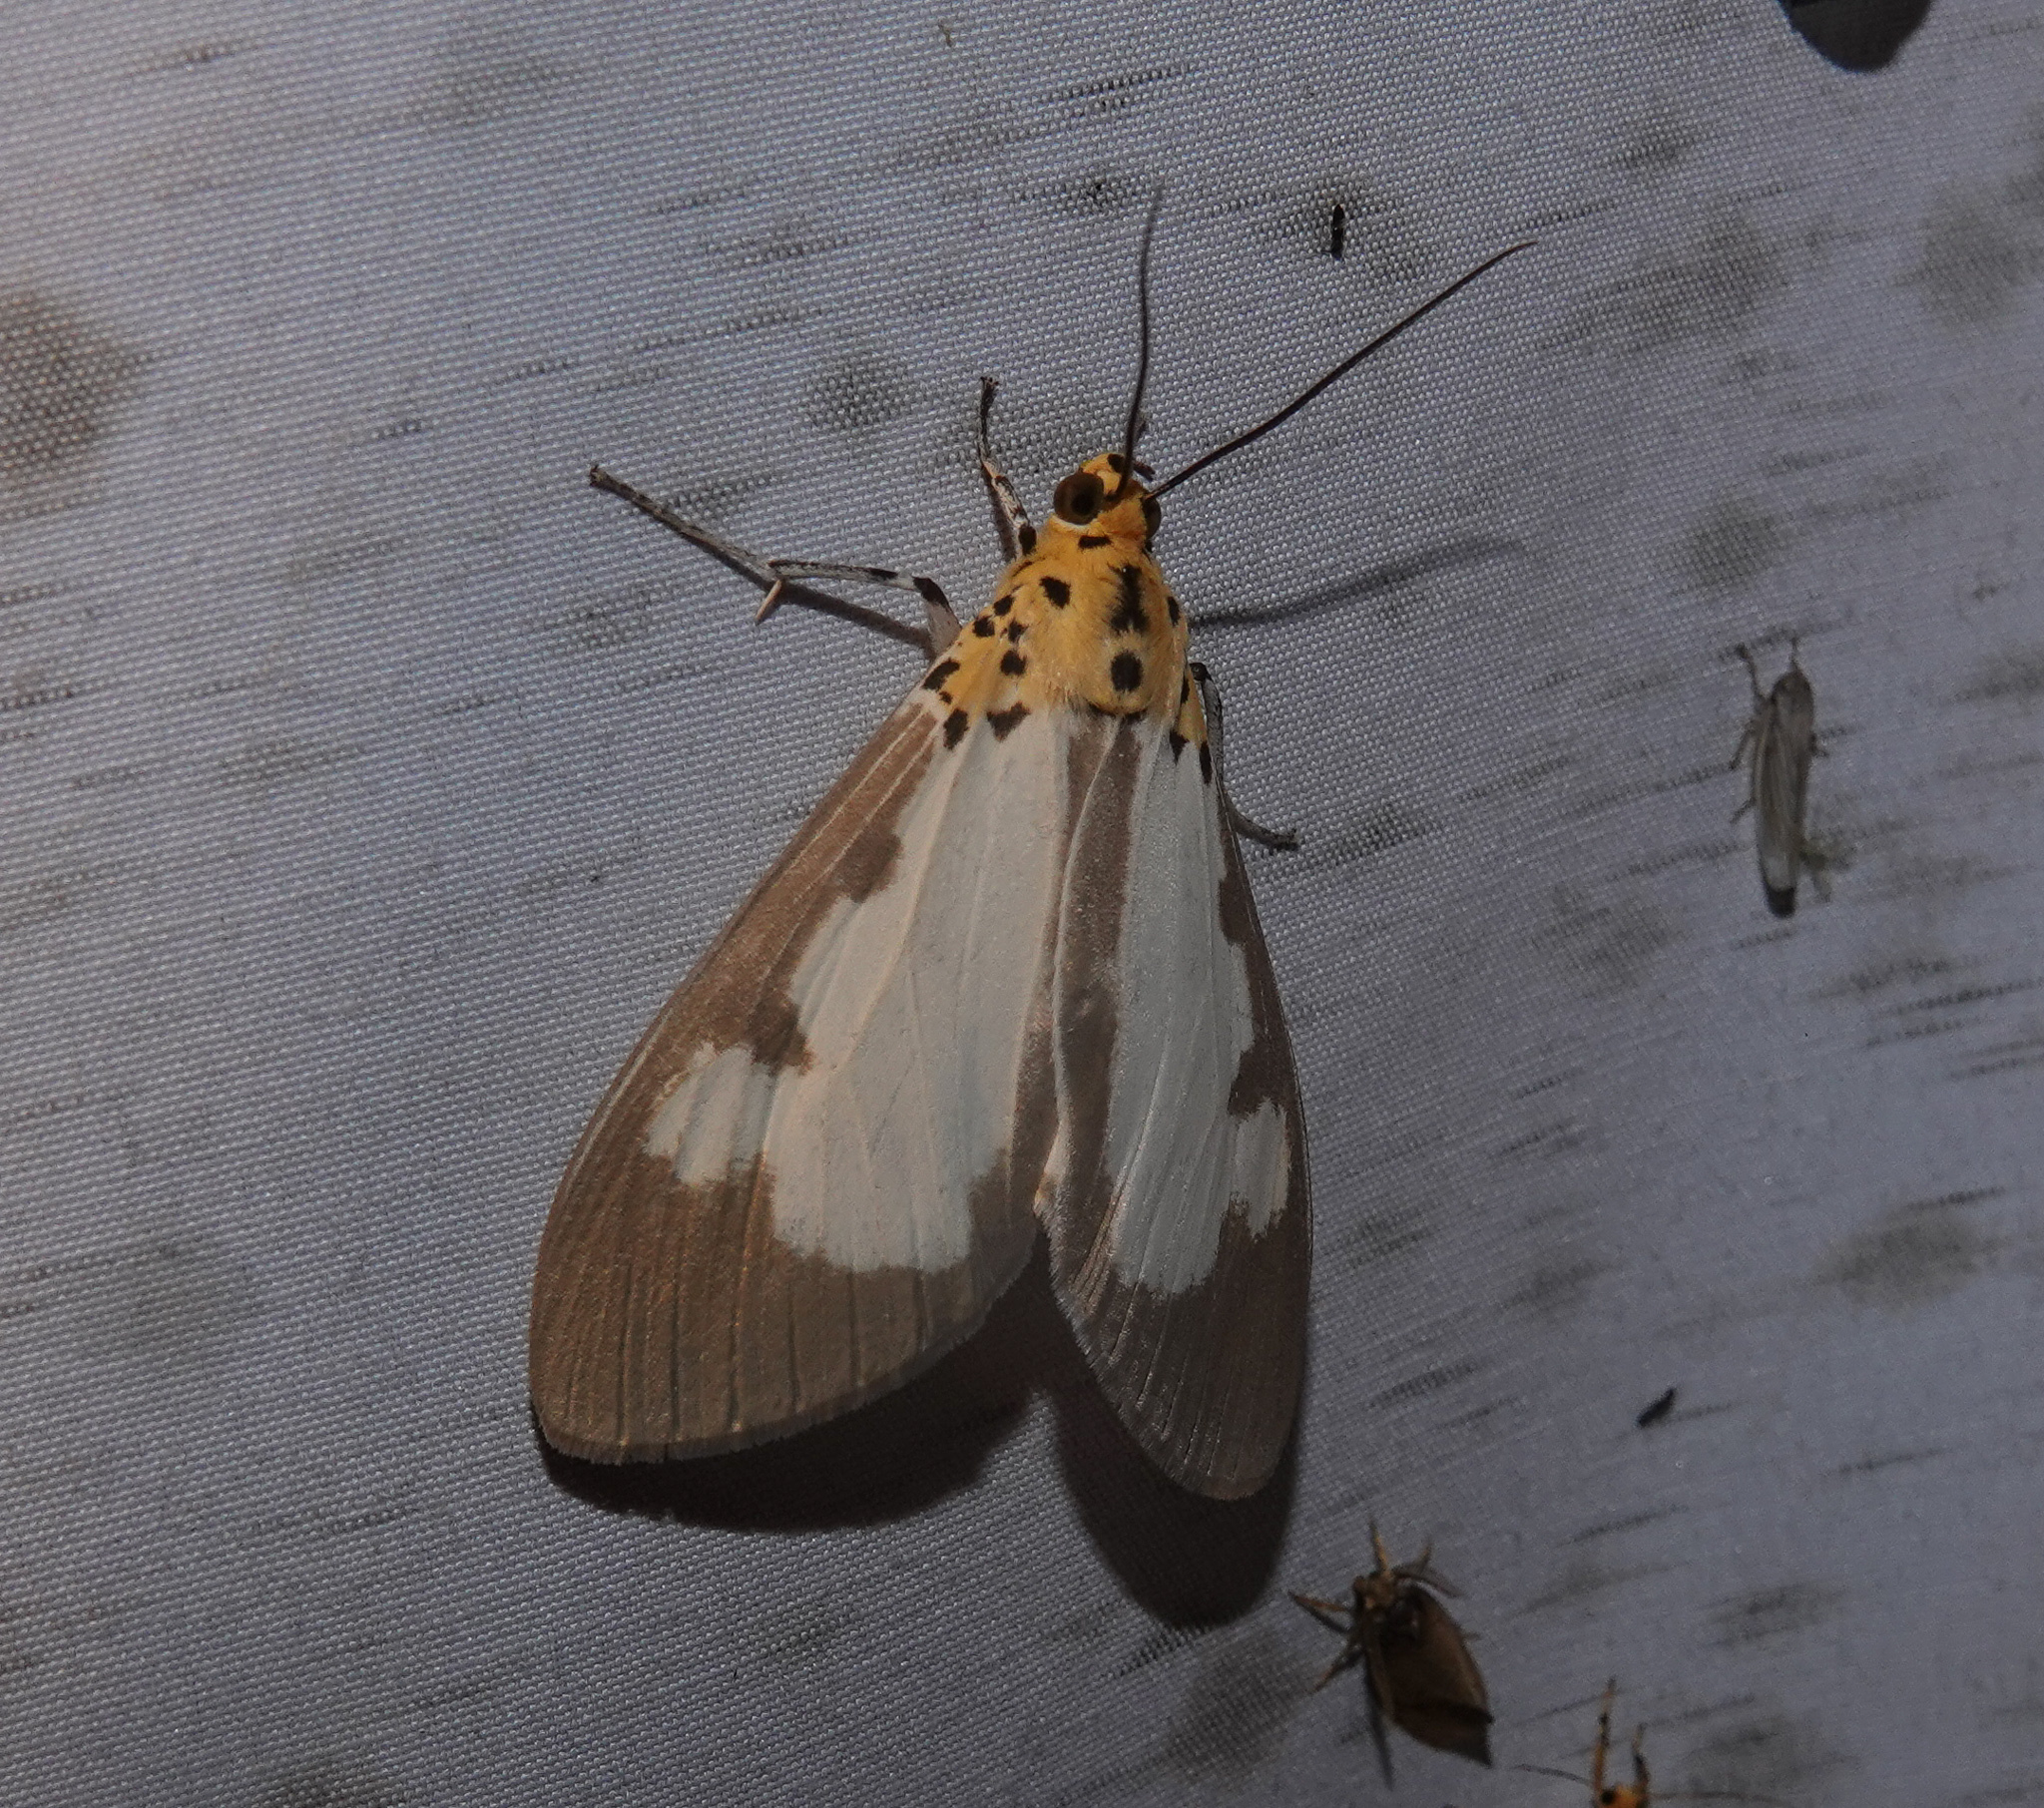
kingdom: Animalia
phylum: Arthropoda
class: Insecta
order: Lepidoptera
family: Erebidae
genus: Asota
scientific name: Asota plana
